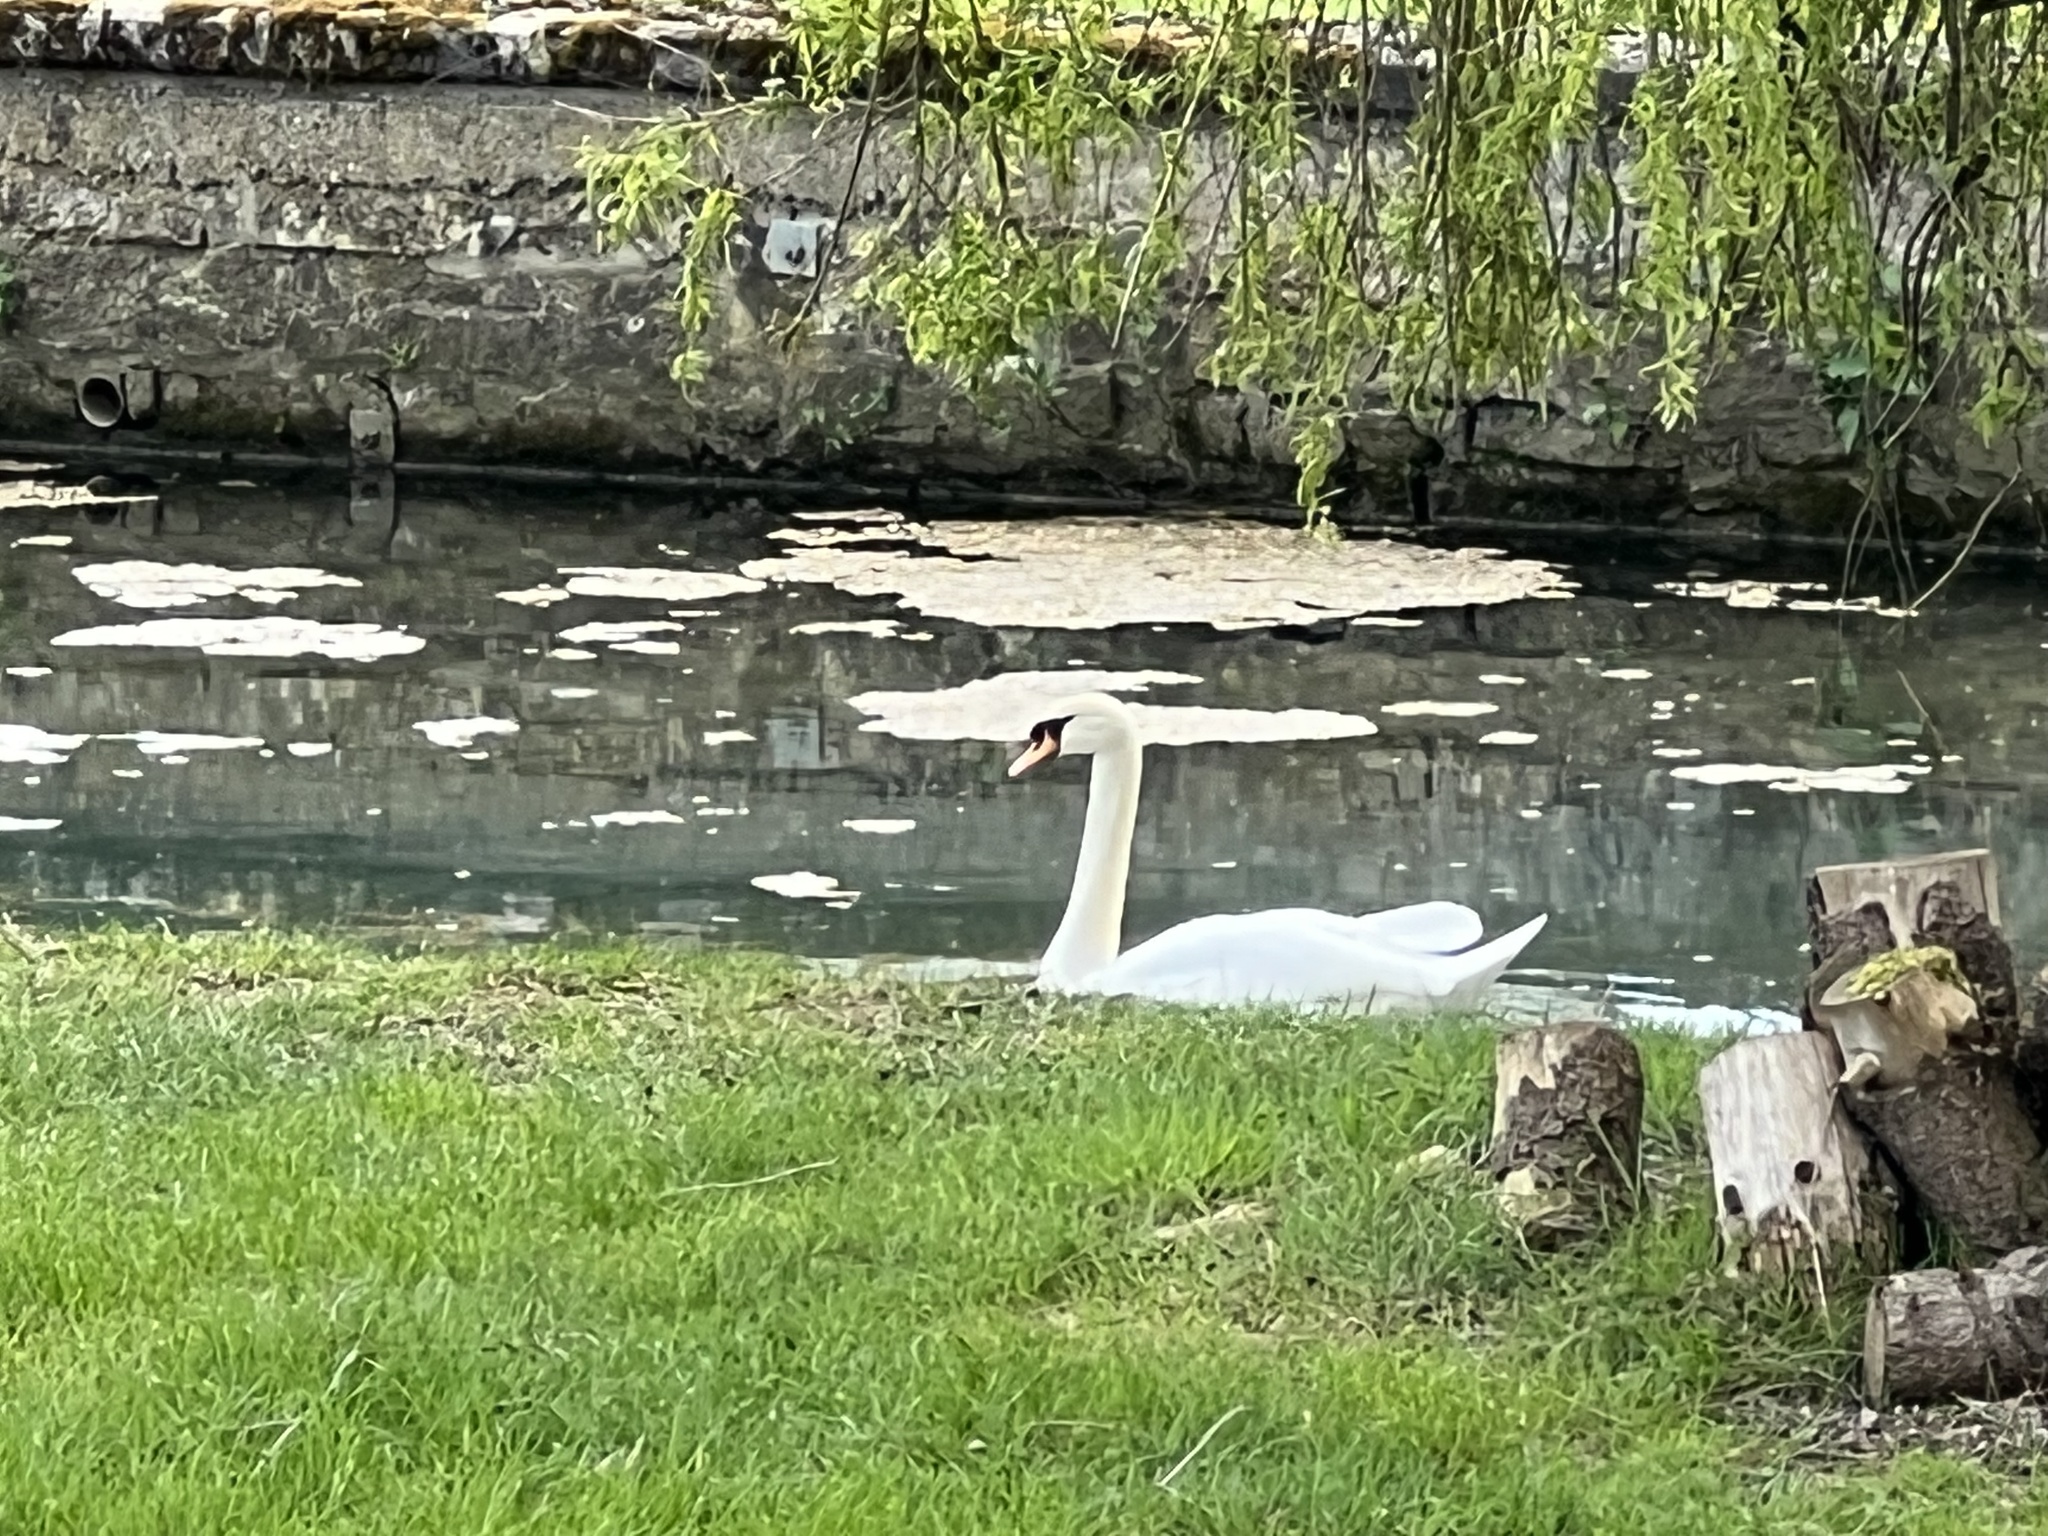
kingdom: Animalia
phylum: Chordata
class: Aves
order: Anseriformes
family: Anatidae
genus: Cygnus
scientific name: Cygnus olor
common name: Mute swan
